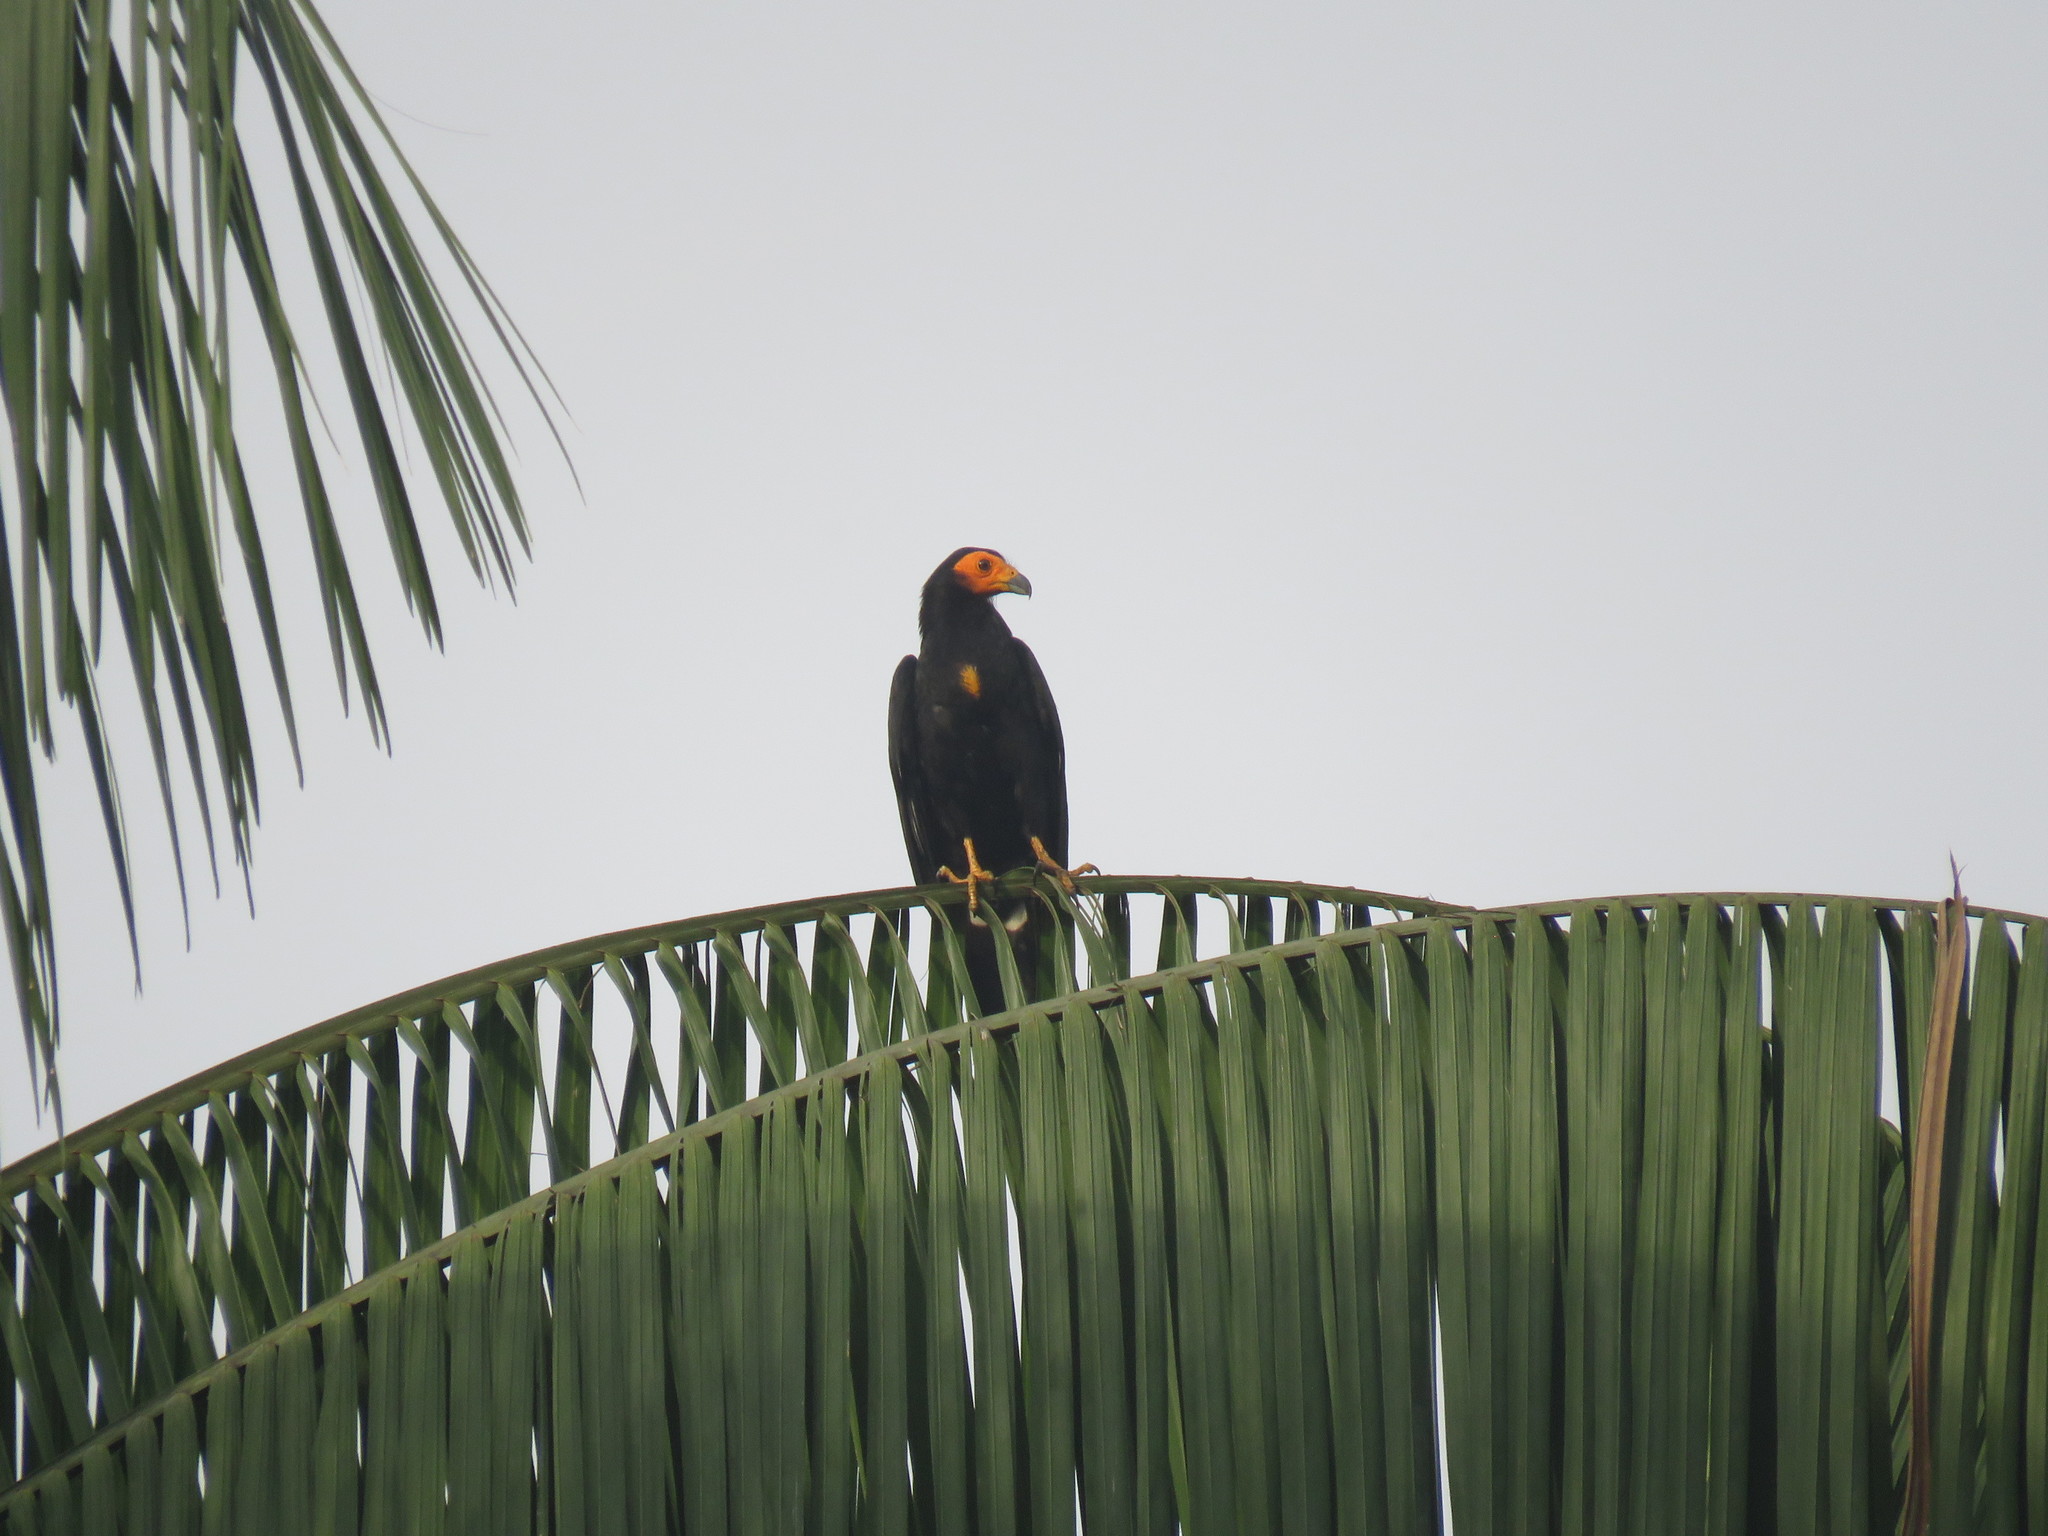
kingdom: Animalia
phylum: Chordata
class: Aves
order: Falconiformes
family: Falconidae
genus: Daptrius
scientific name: Daptrius ater
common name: Black caracara
